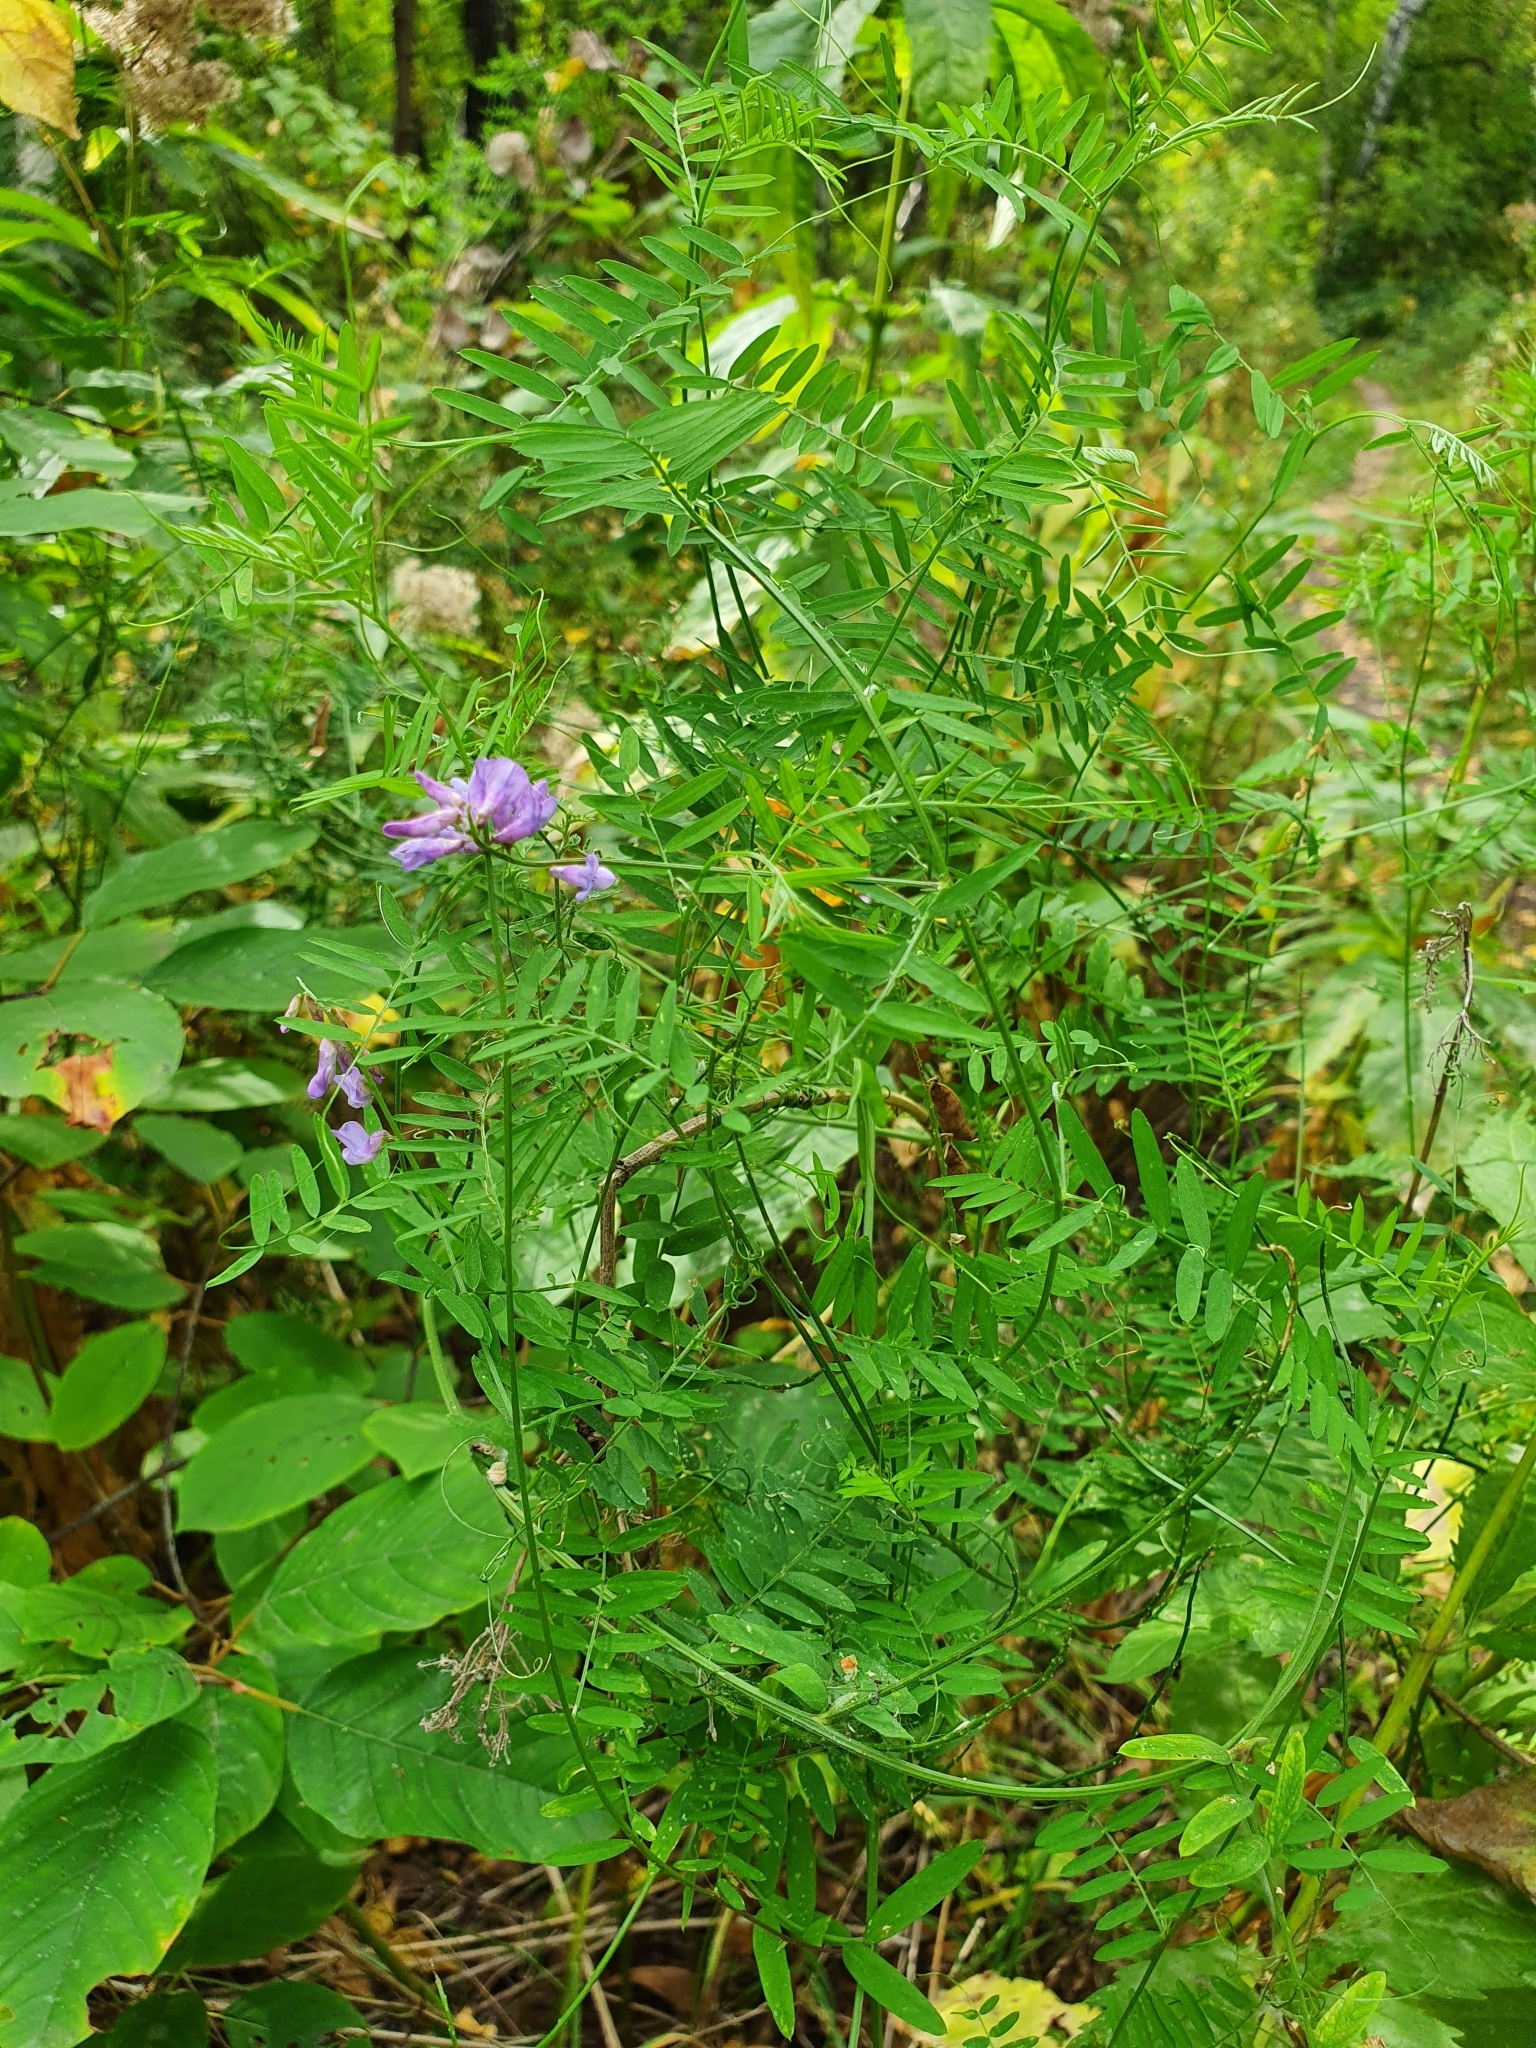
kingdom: Plantae
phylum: Tracheophyta
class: Magnoliopsida
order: Fabales
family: Fabaceae
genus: Vicia
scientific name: Vicia cracca
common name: Bird vetch
